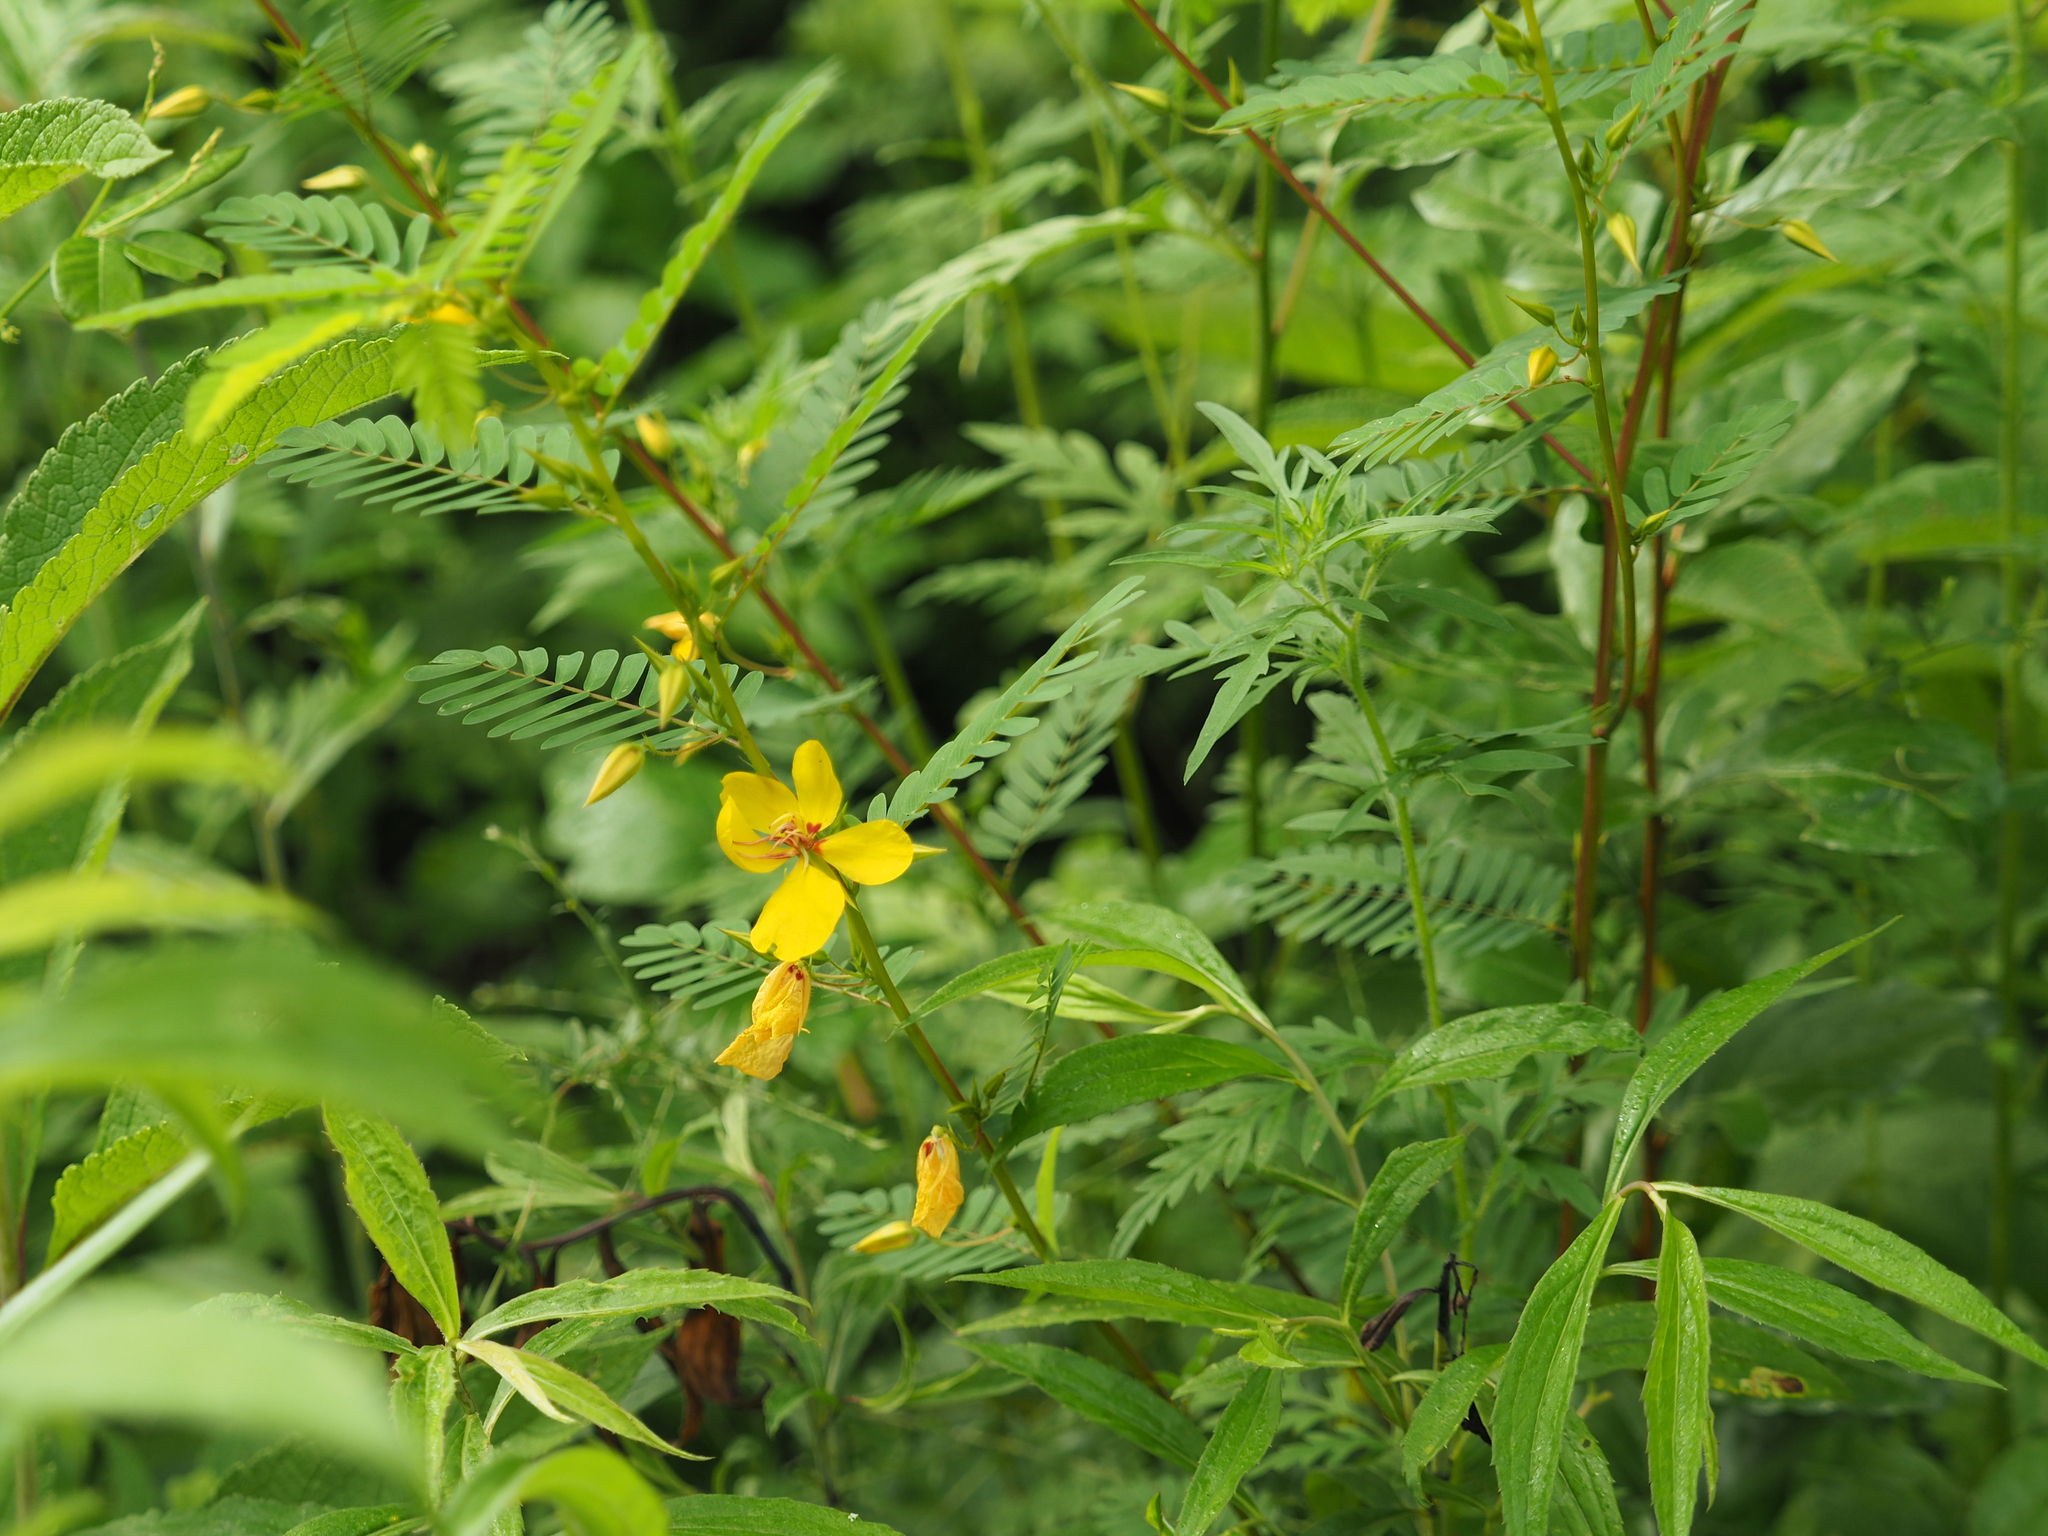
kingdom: Plantae
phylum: Tracheophyta
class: Magnoliopsida
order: Fabales
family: Fabaceae
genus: Chamaecrista
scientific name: Chamaecrista fasciculata
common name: Golden cassia
